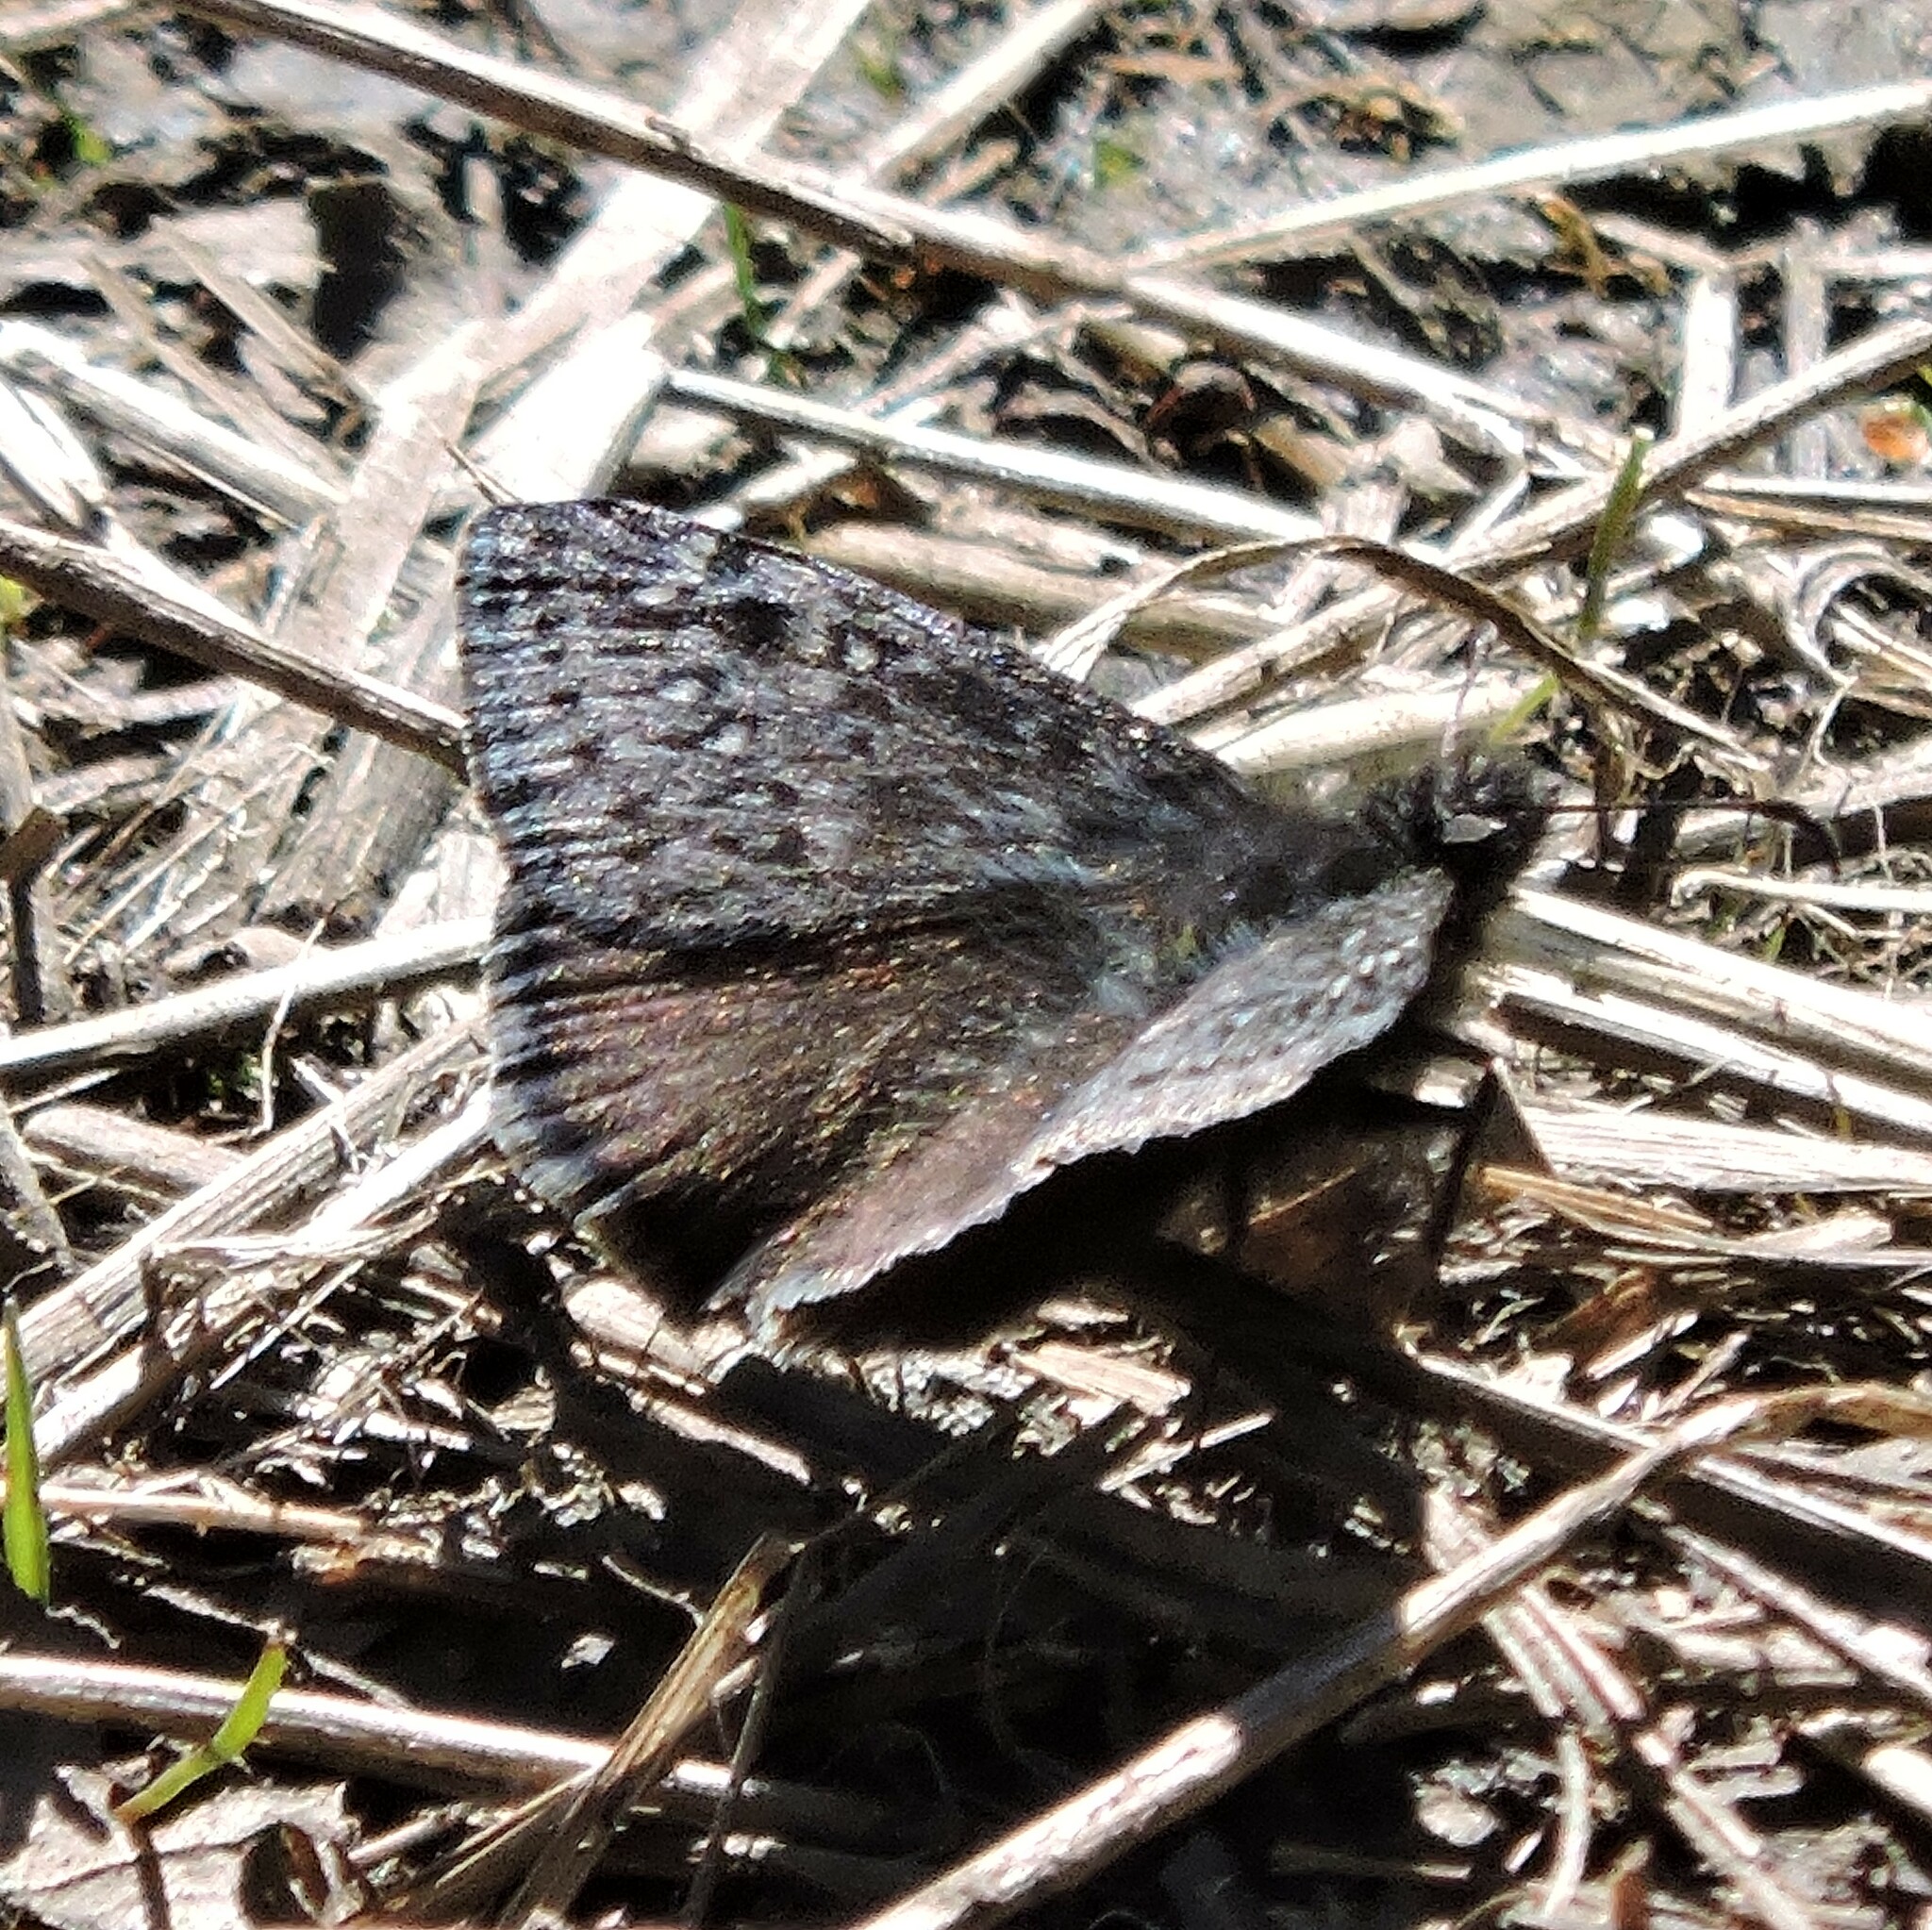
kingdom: Animalia
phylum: Arthropoda
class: Insecta
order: Lepidoptera
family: Hesperiidae
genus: Erynnis
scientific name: Erynnis propertius
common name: Propertius duskywing
